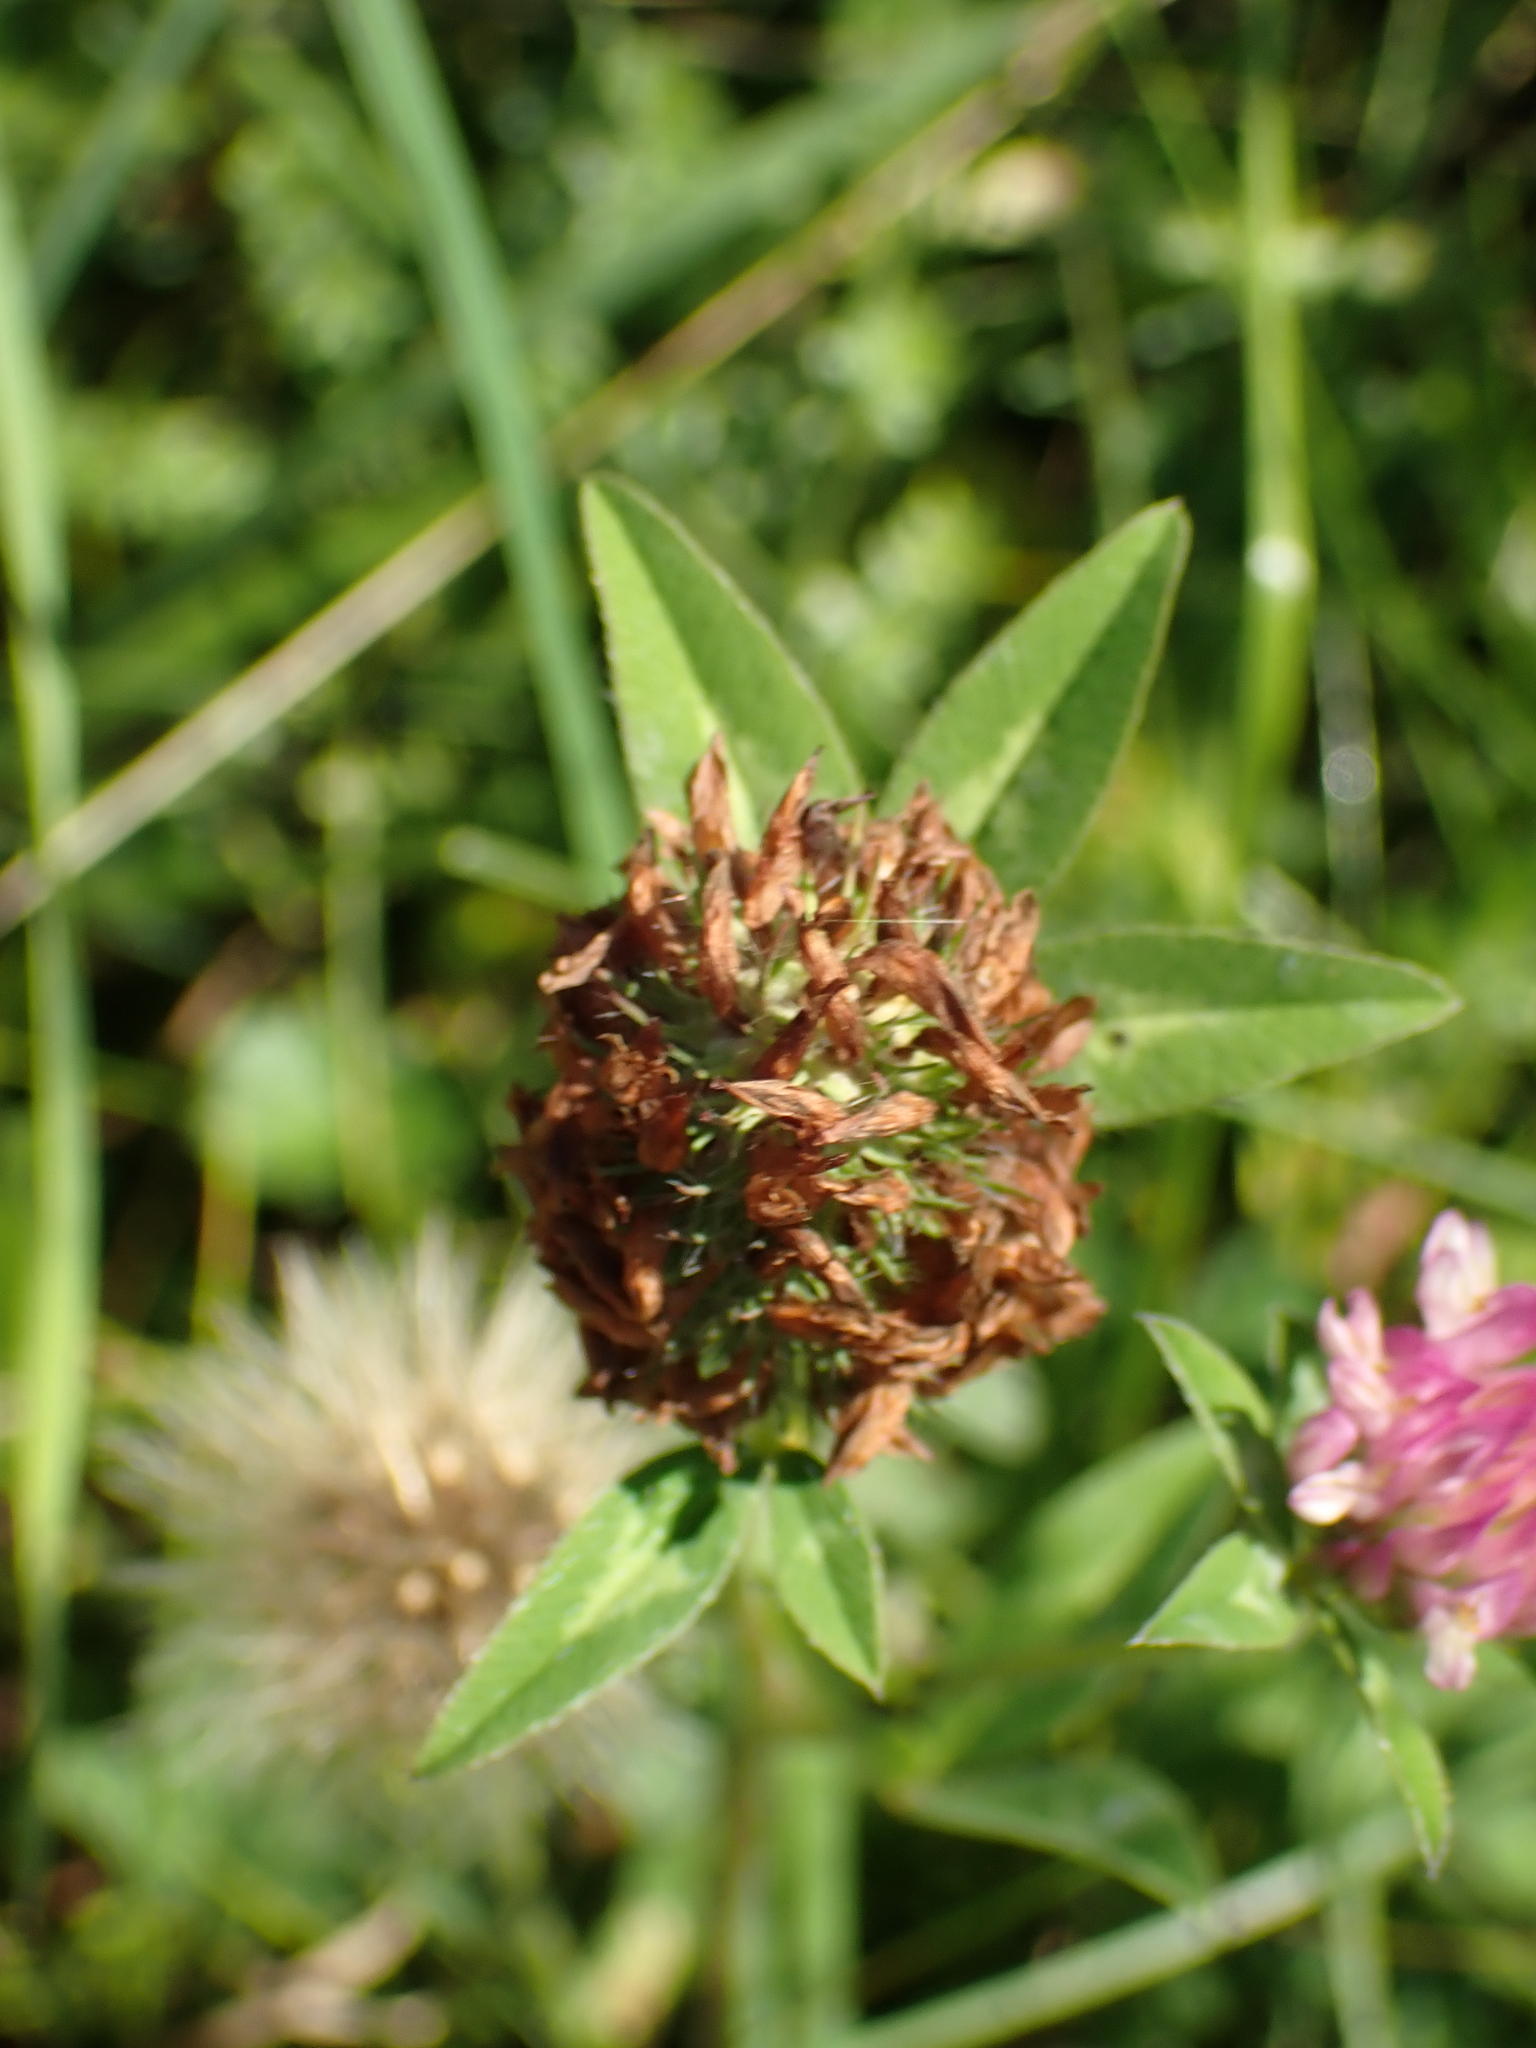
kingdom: Plantae
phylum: Tracheophyta
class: Magnoliopsida
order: Fabales
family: Fabaceae
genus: Trifolium
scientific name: Trifolium pratense
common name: Red clover
